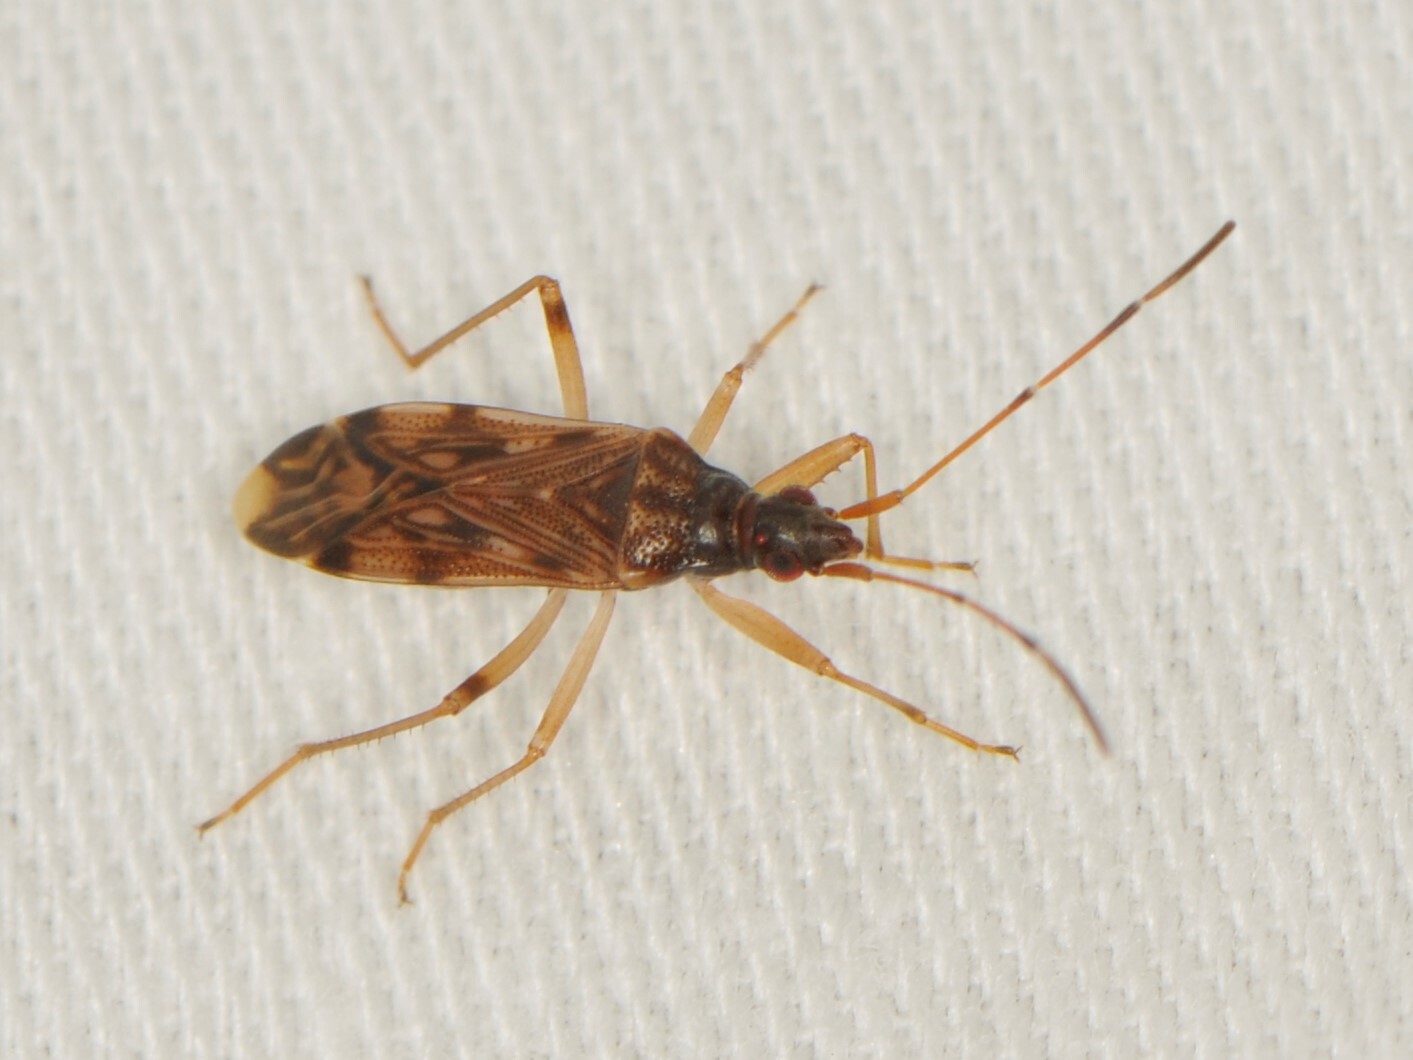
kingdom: Animalia
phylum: Arthropoda
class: Insecta
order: Hemiptera
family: Rhyparochromidae
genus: Ozophora
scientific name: Ozophora salsaverdeae
